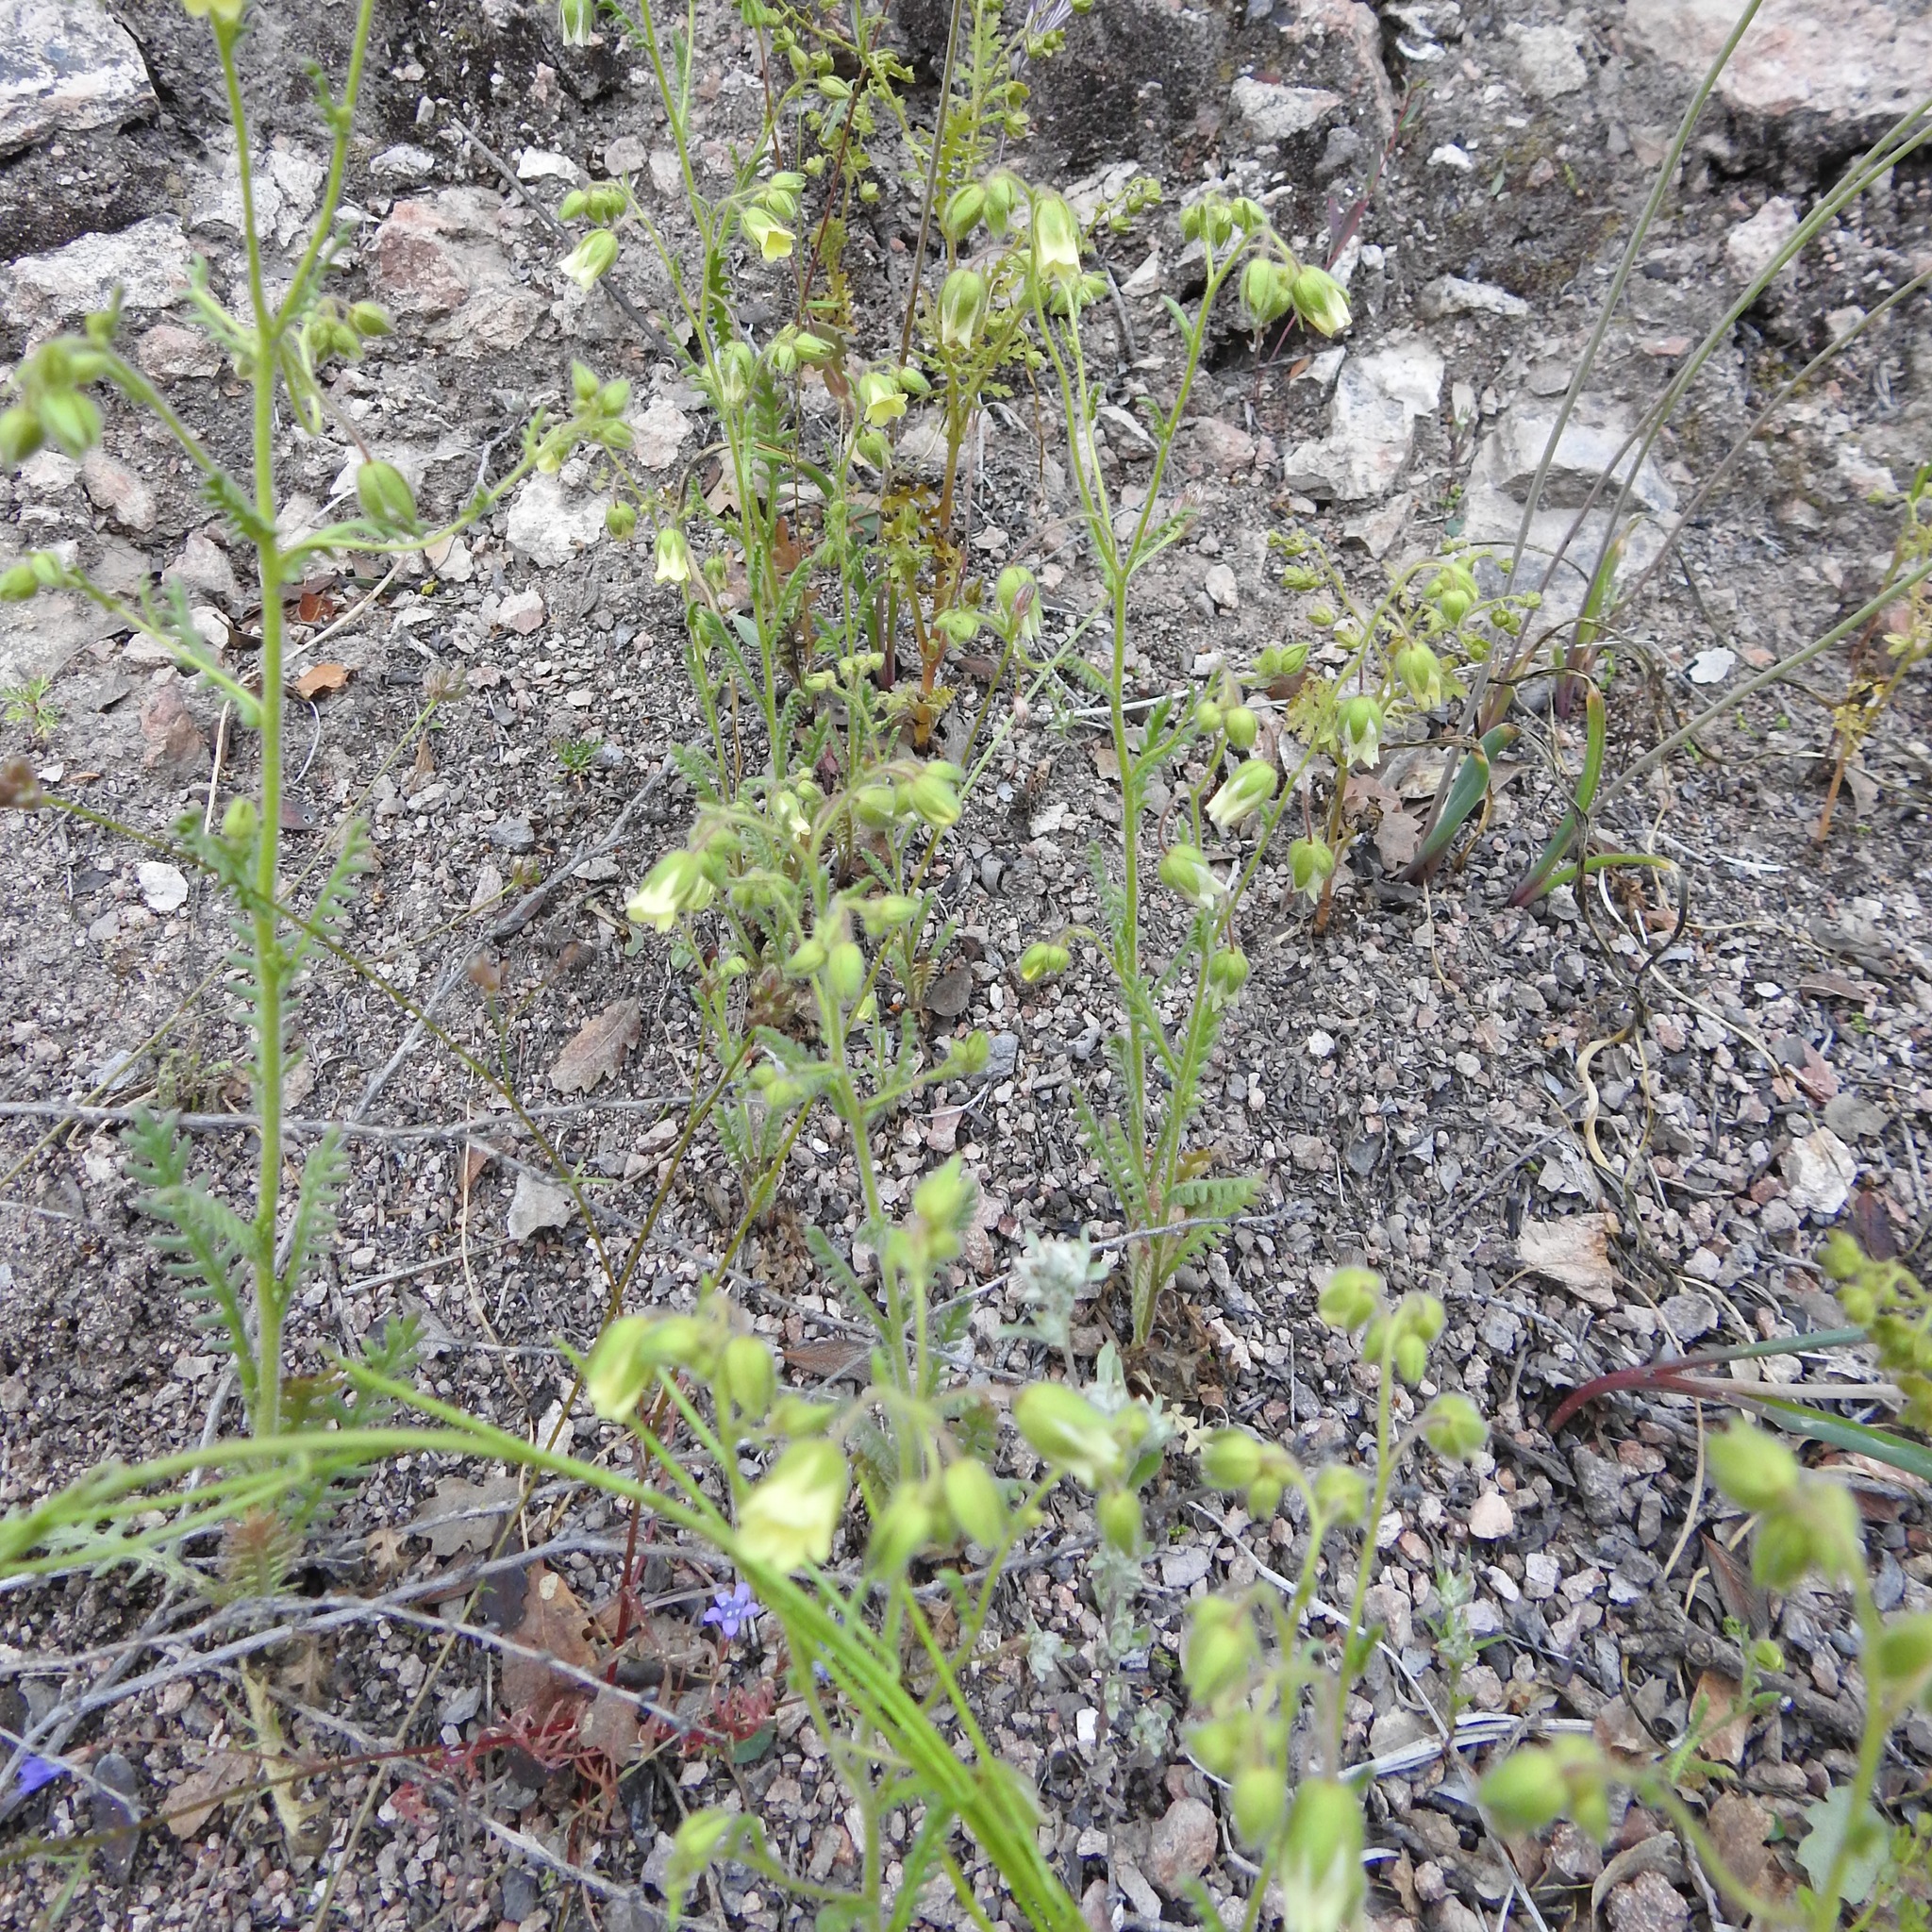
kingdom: Plantae
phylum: Tracheophyta
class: Magnoliopsida
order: Boraginales
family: Hydrophyllaceae
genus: Emmenanthe
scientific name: Emmenanthe penduliflora
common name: Whispering-bells
